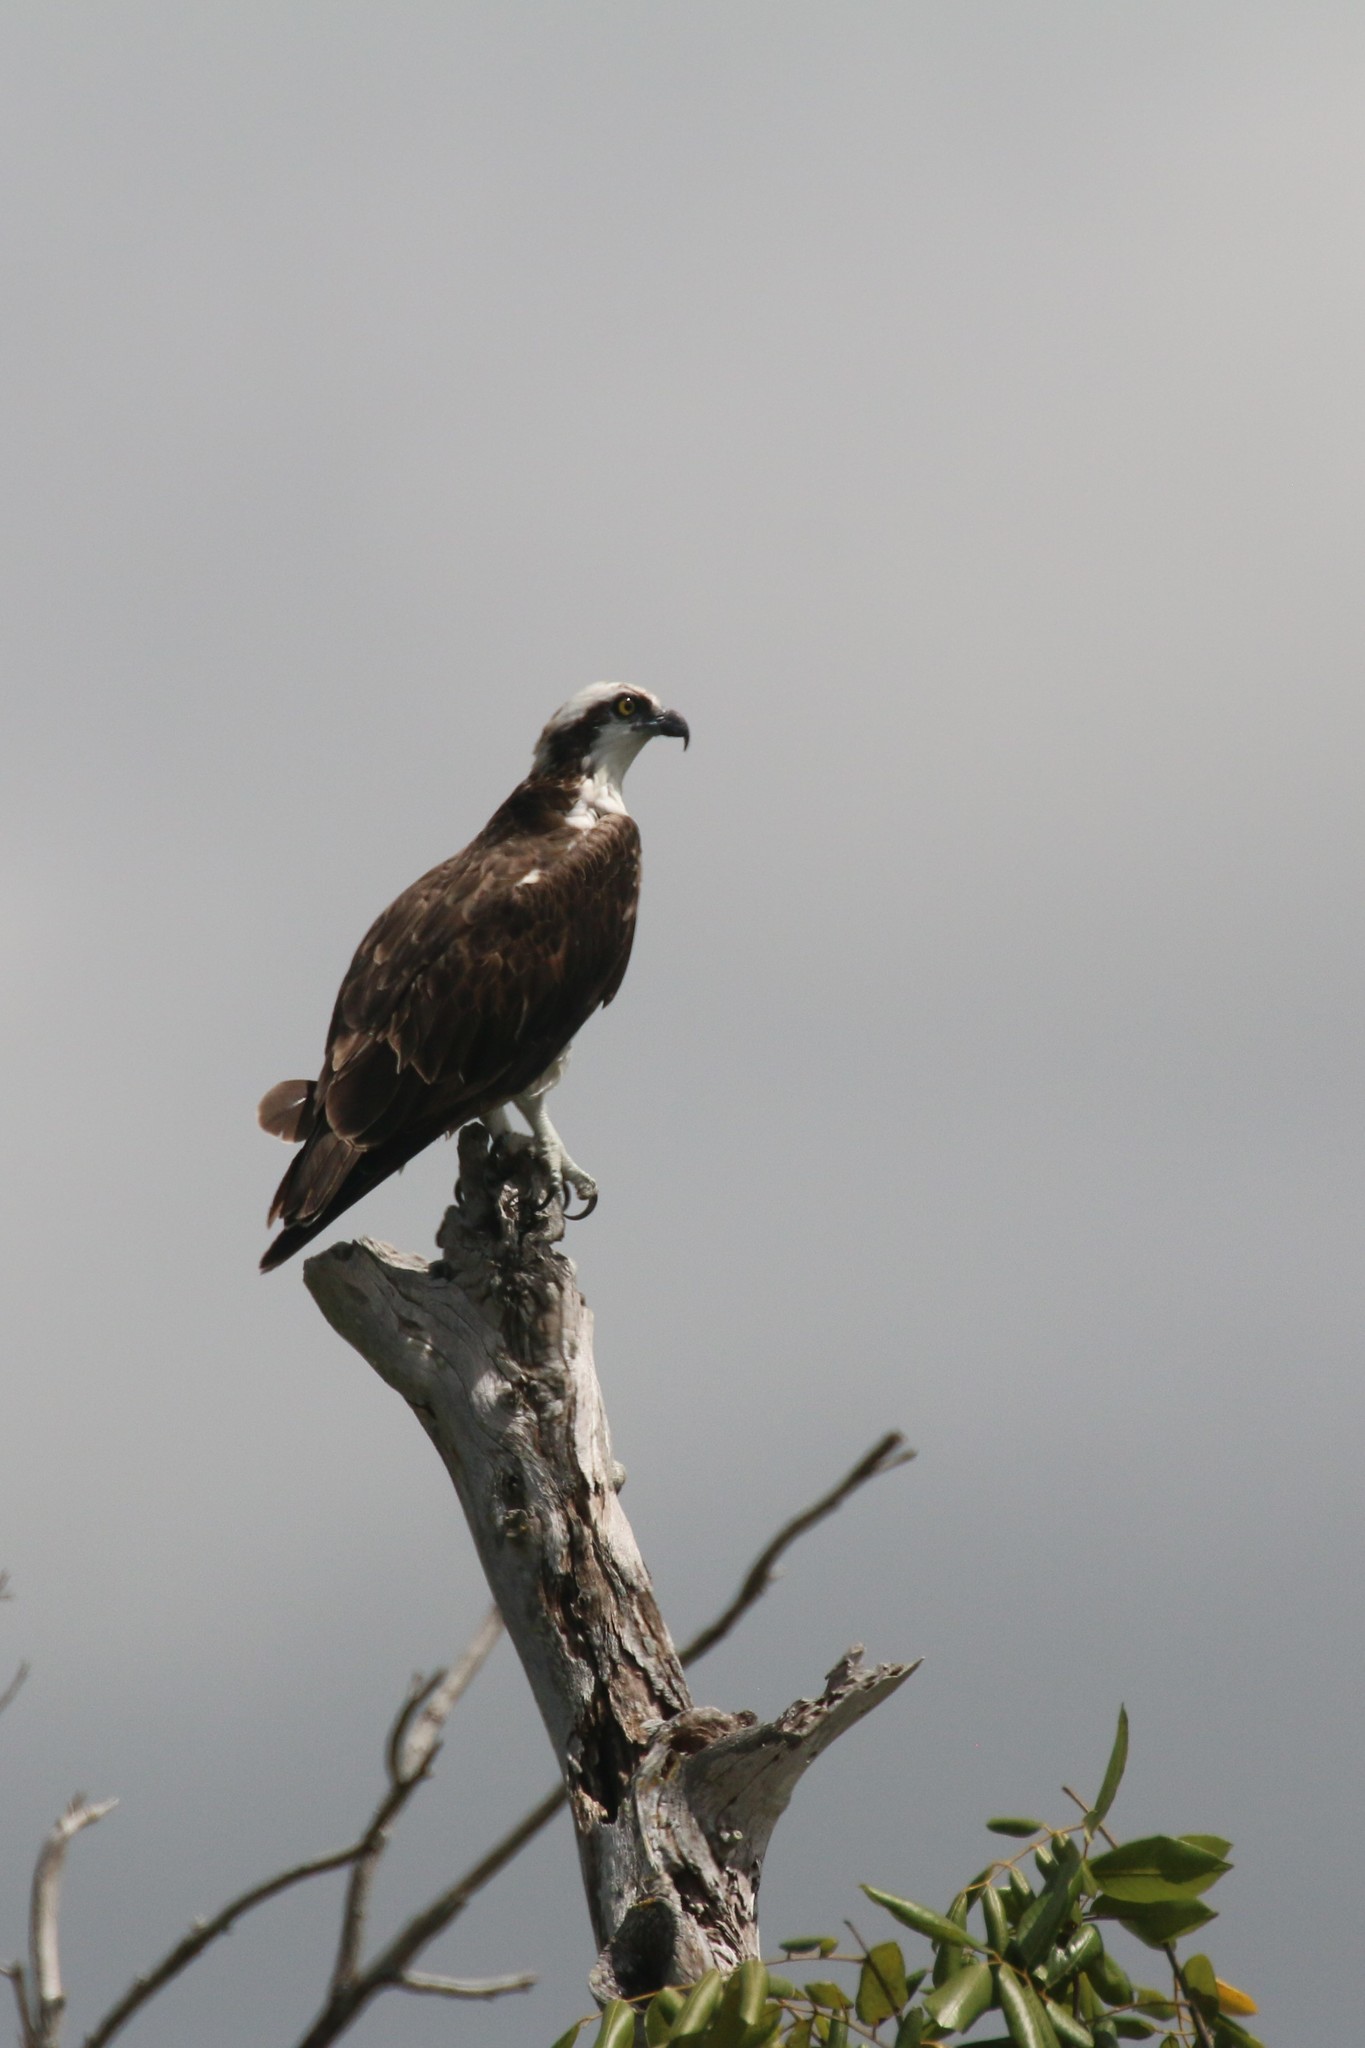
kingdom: Animalia
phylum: Chordata
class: Aves
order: Accipitriformes
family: Pandionidae
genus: Pandion
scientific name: Pandion haliaetus
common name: Osprey
